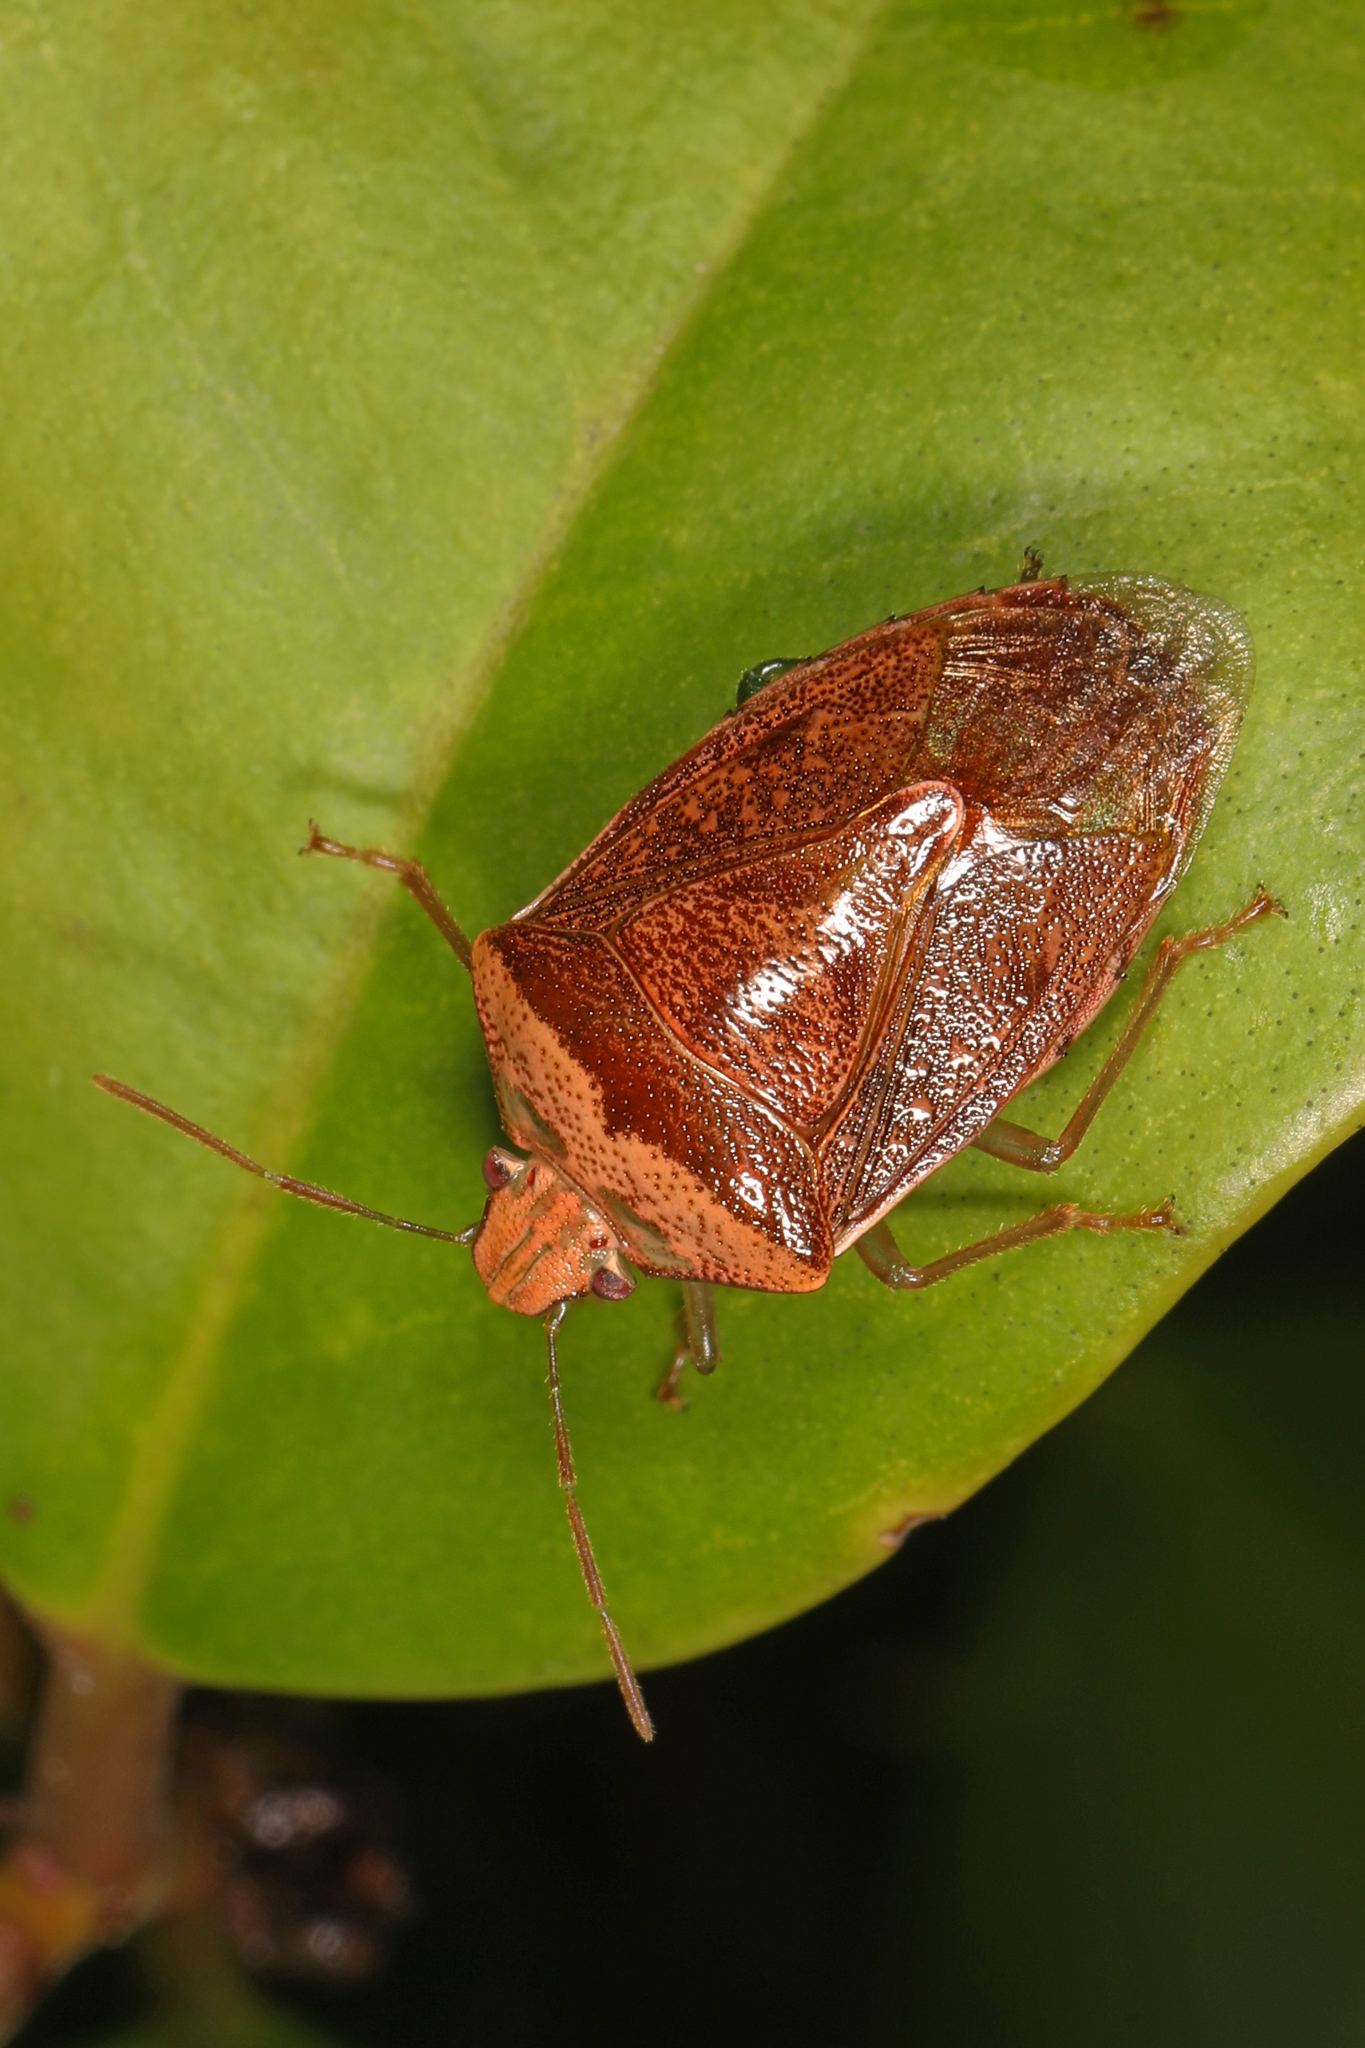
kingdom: Animalia
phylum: Arthropoda
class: Insecta
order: Hemiptera
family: Pentatomidae
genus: Banasa
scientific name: Banasa calva
